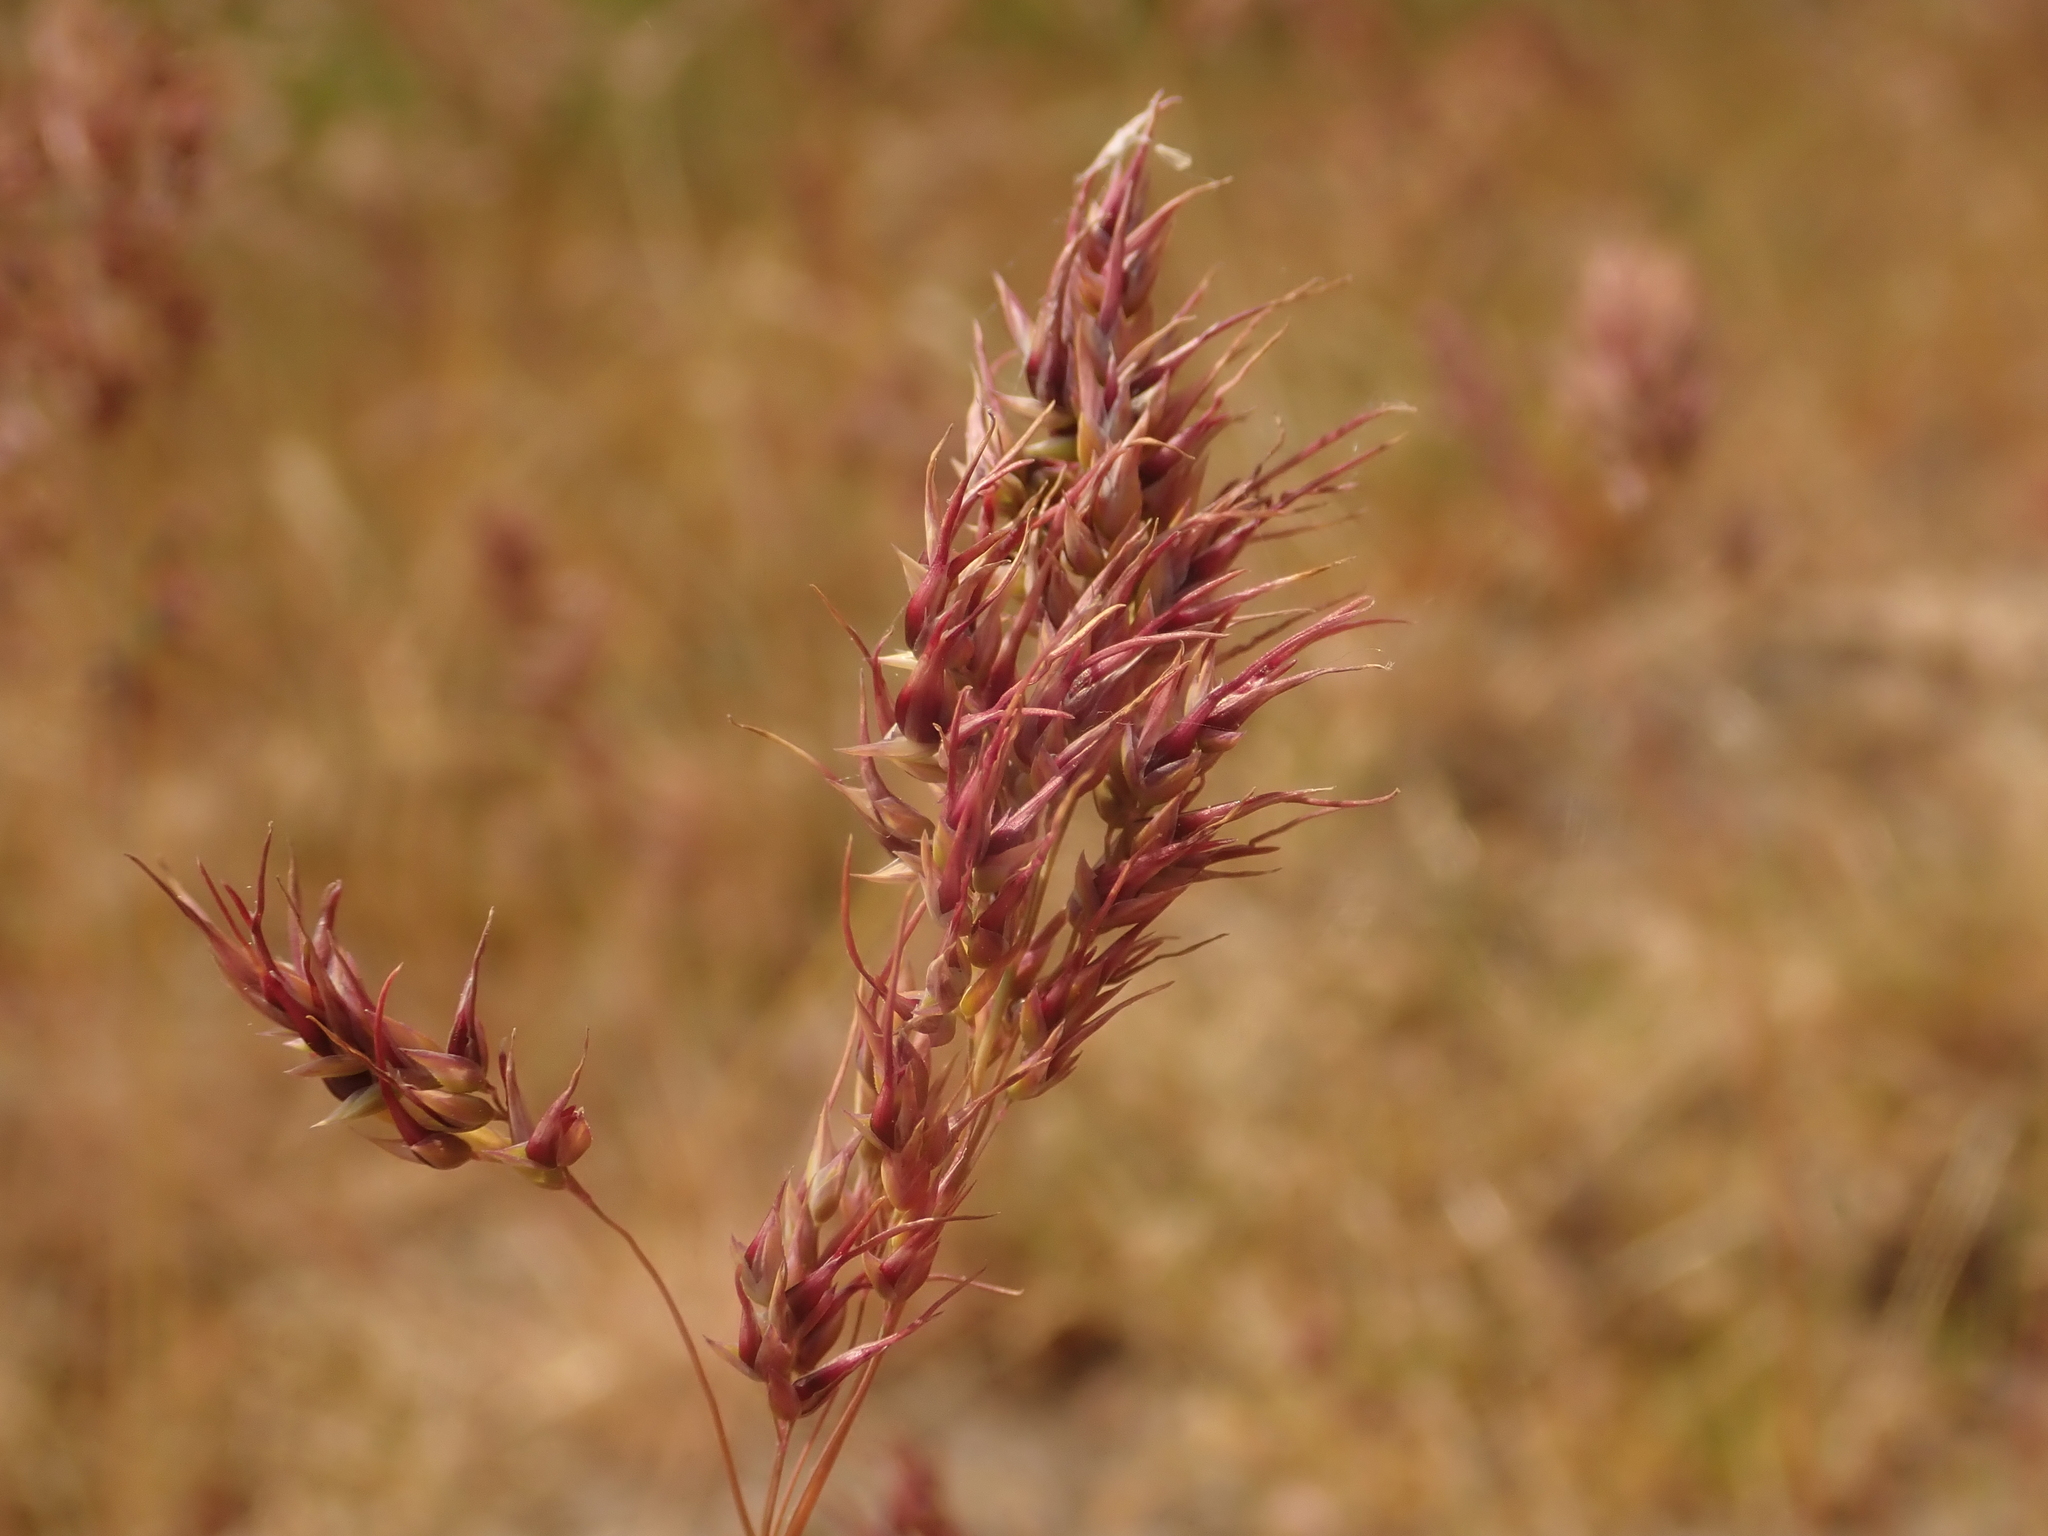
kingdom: Plantae
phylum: Tracheophyta
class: Liliopsida
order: Poales
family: Poaceae
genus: Poa
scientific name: Poa bulbosa
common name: Bulbous bluegrass
